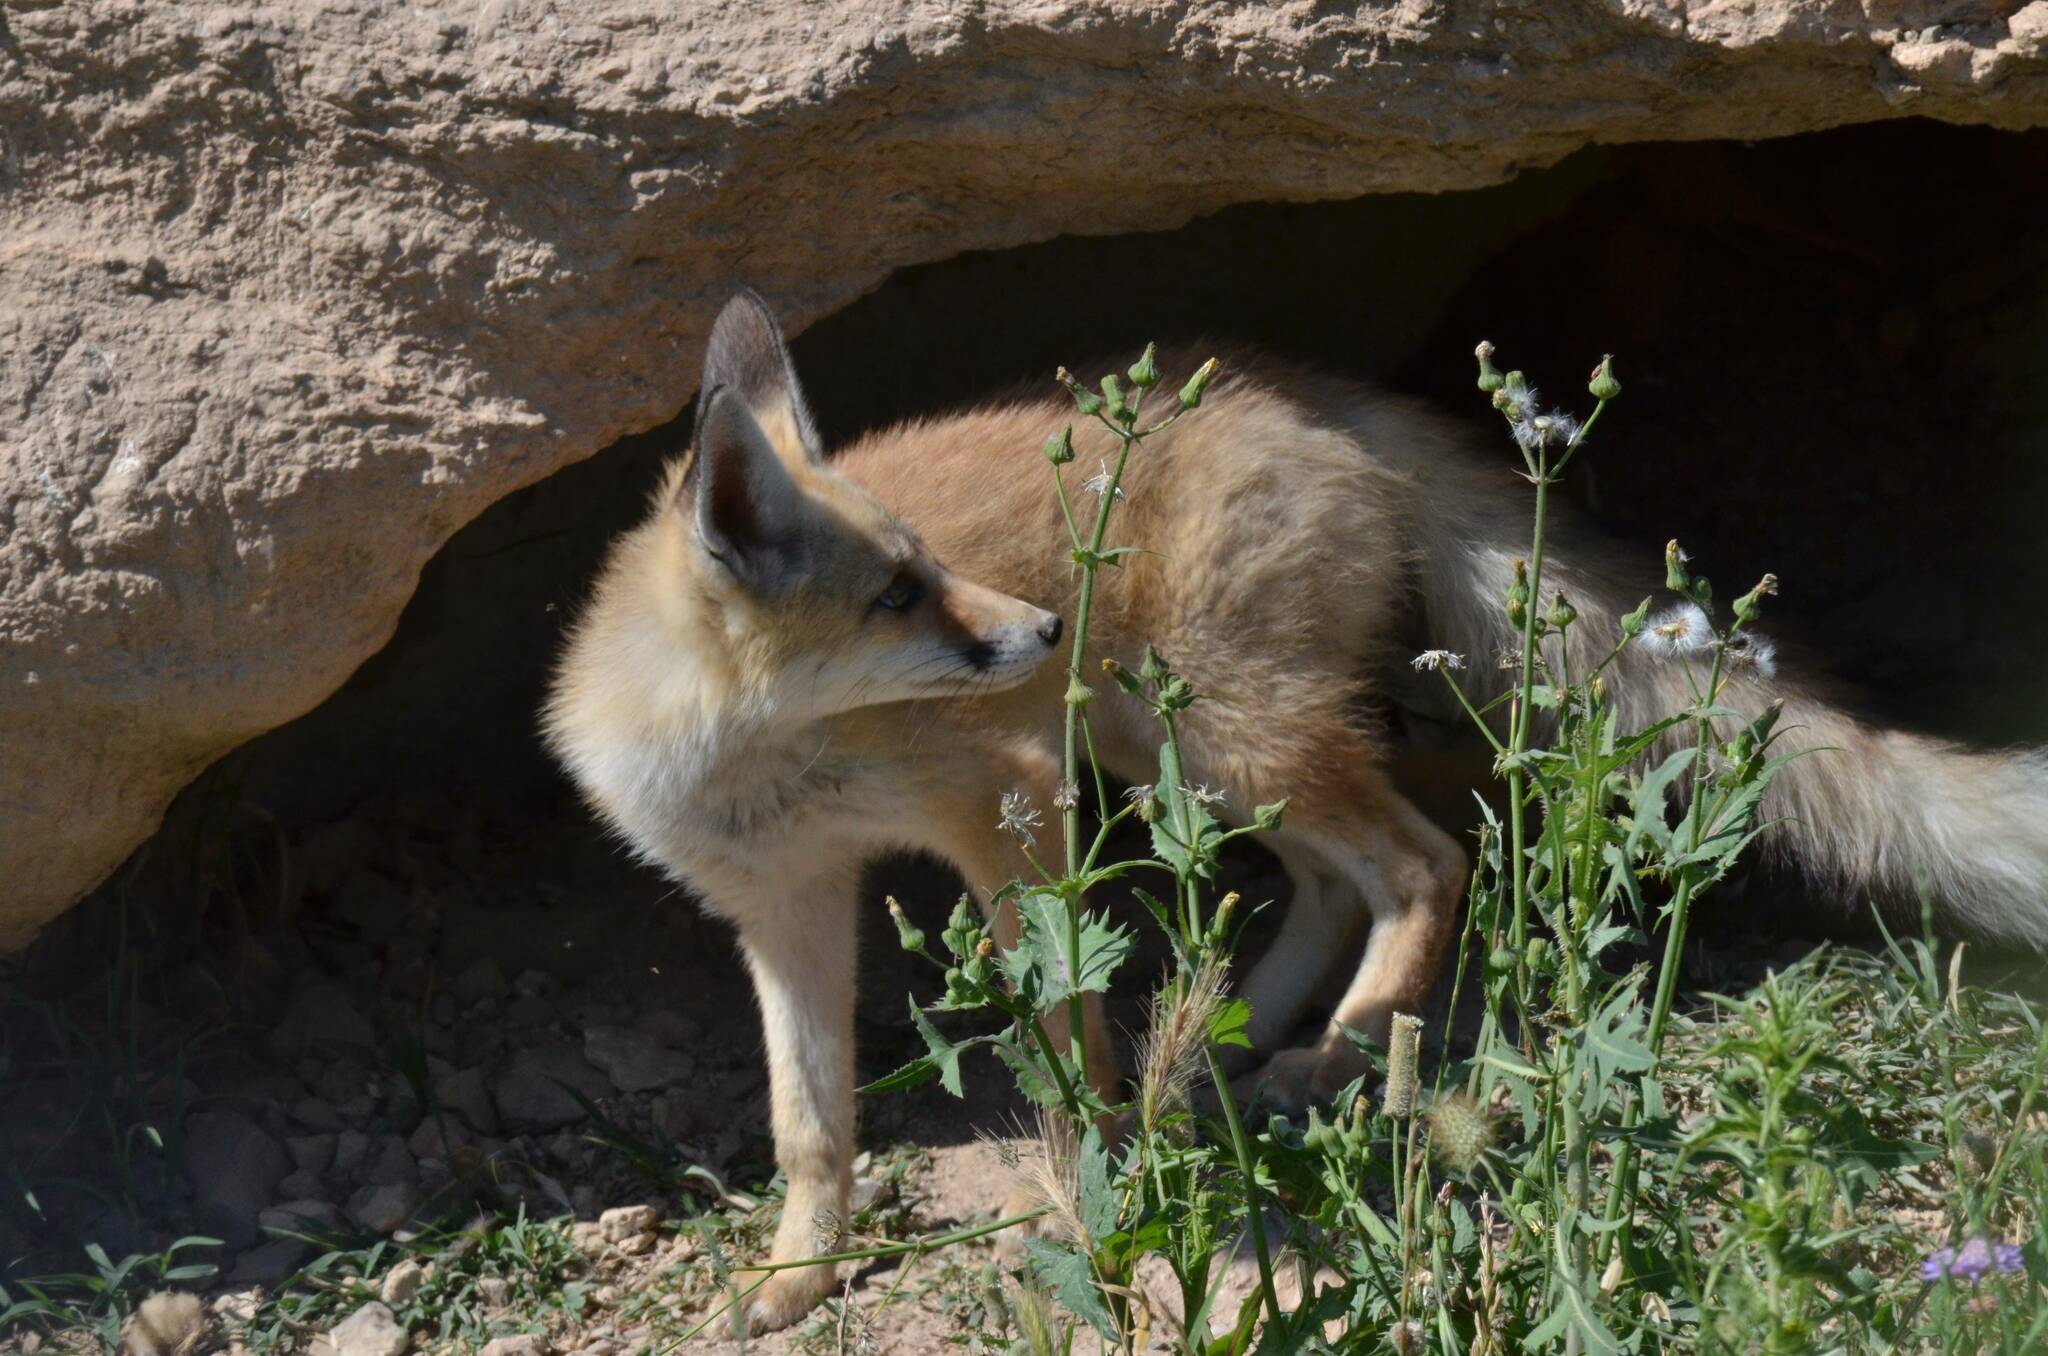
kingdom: Animalia
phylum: Chordata
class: Mammalia
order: Carnivora
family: Canidae
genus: Vulpes
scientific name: Vulpes vulpes
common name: Red fox
